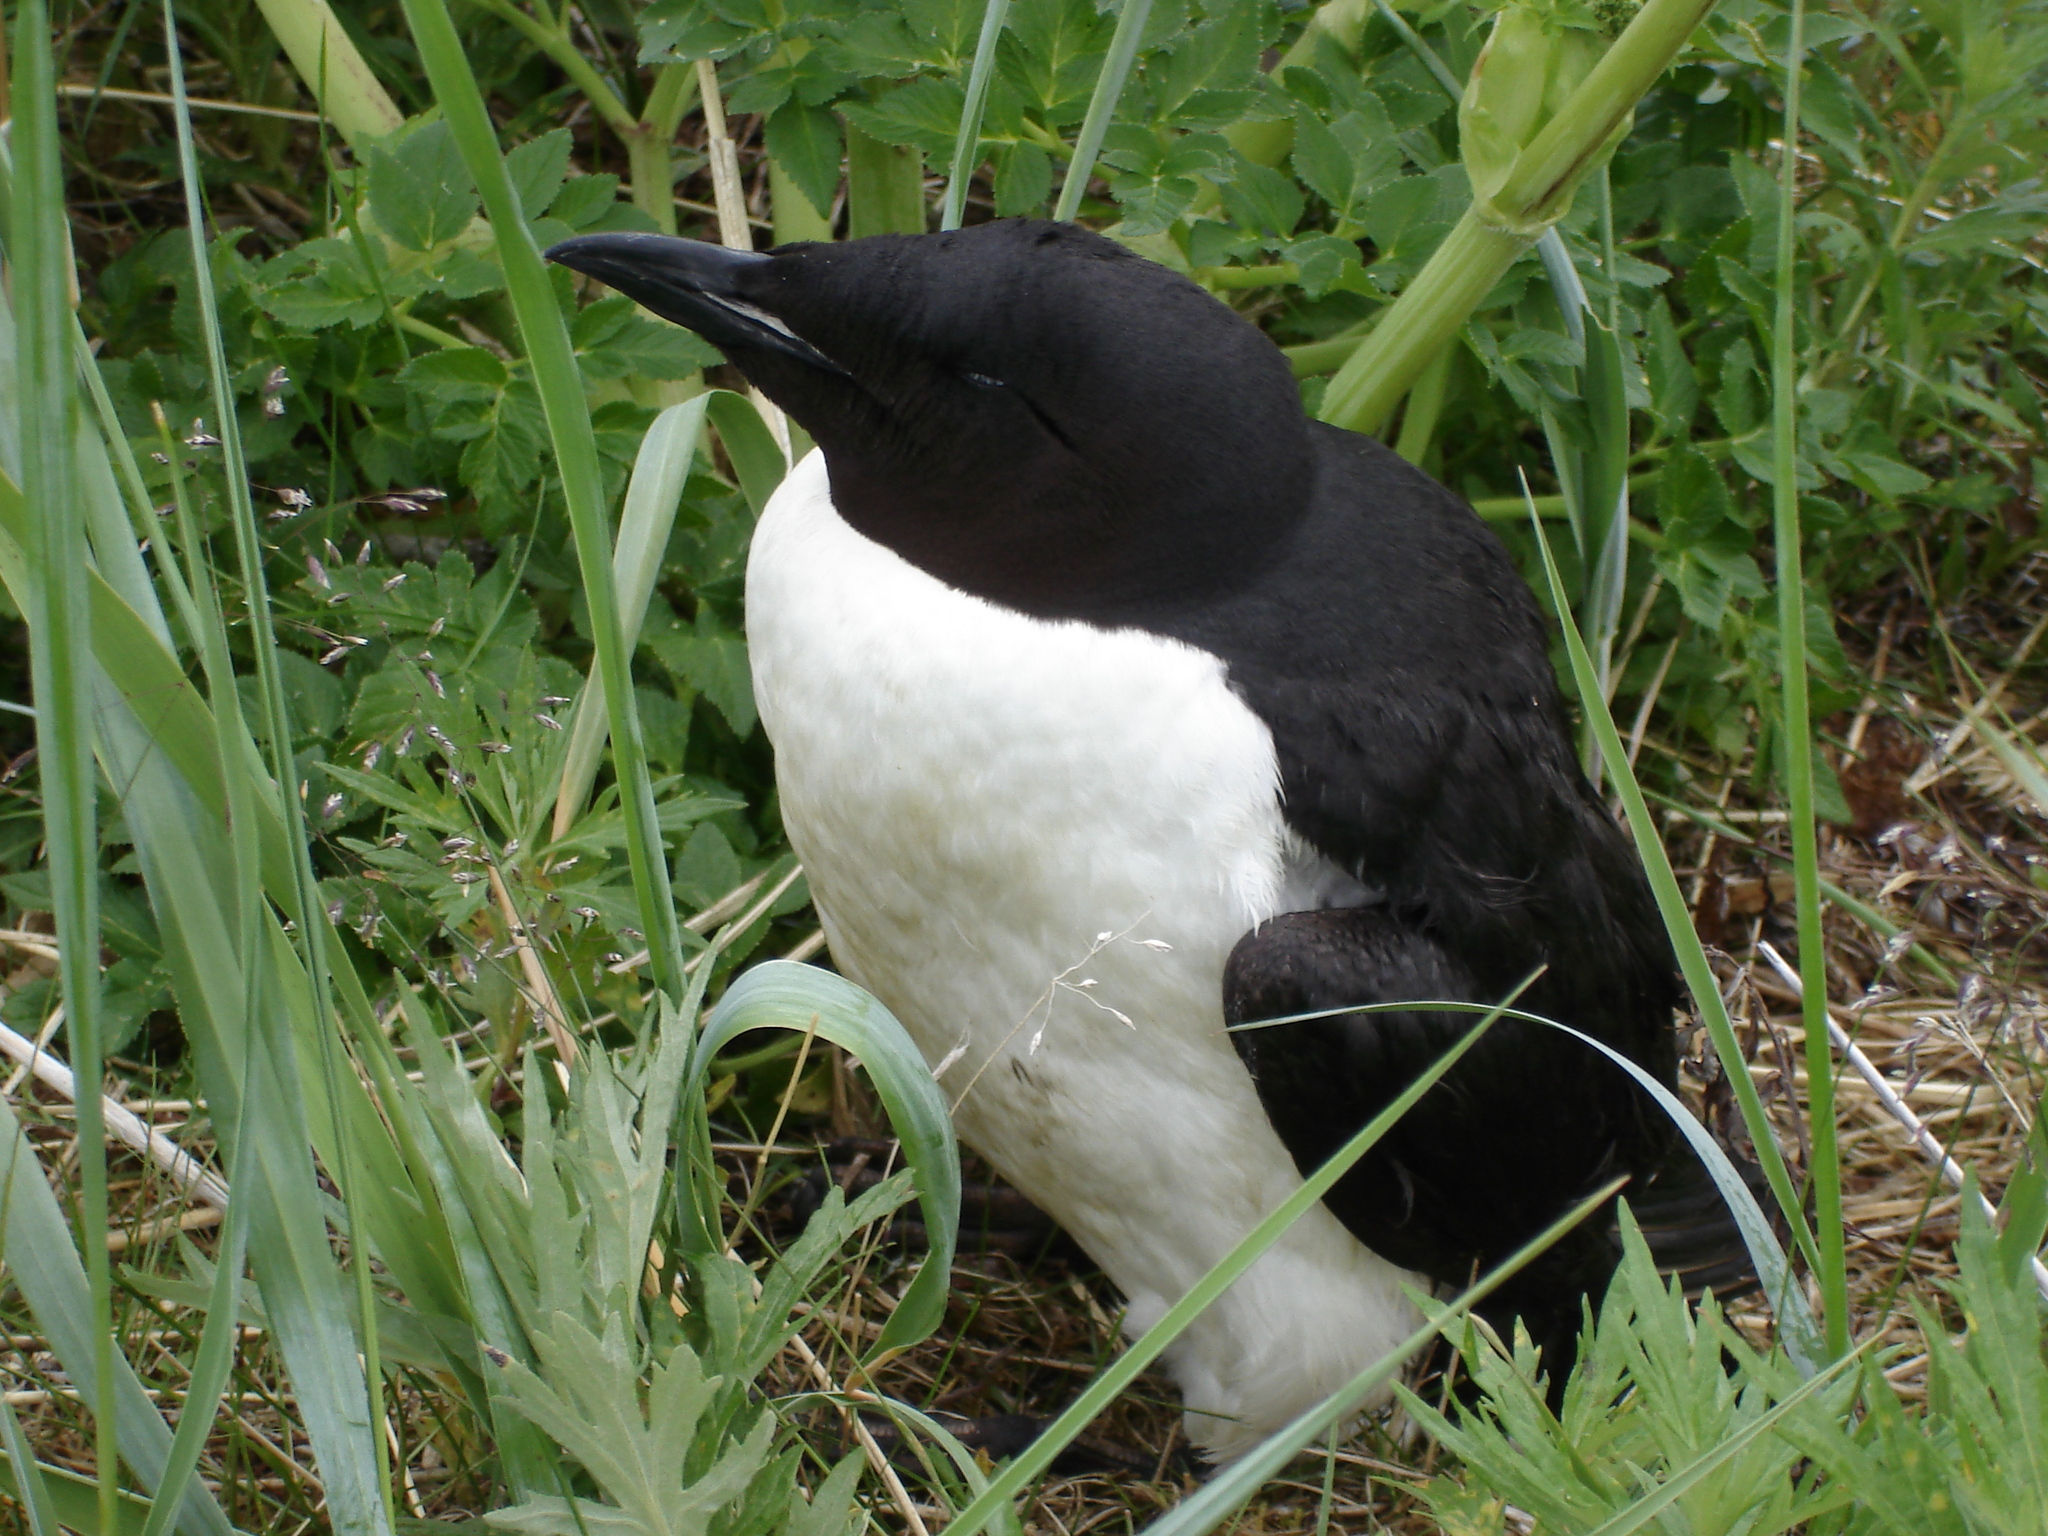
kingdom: Animalia
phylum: Chordata
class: Aves
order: Charadriiformes
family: Alcidae
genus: Uria
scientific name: Uria lomvia
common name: Thick-billed murre
